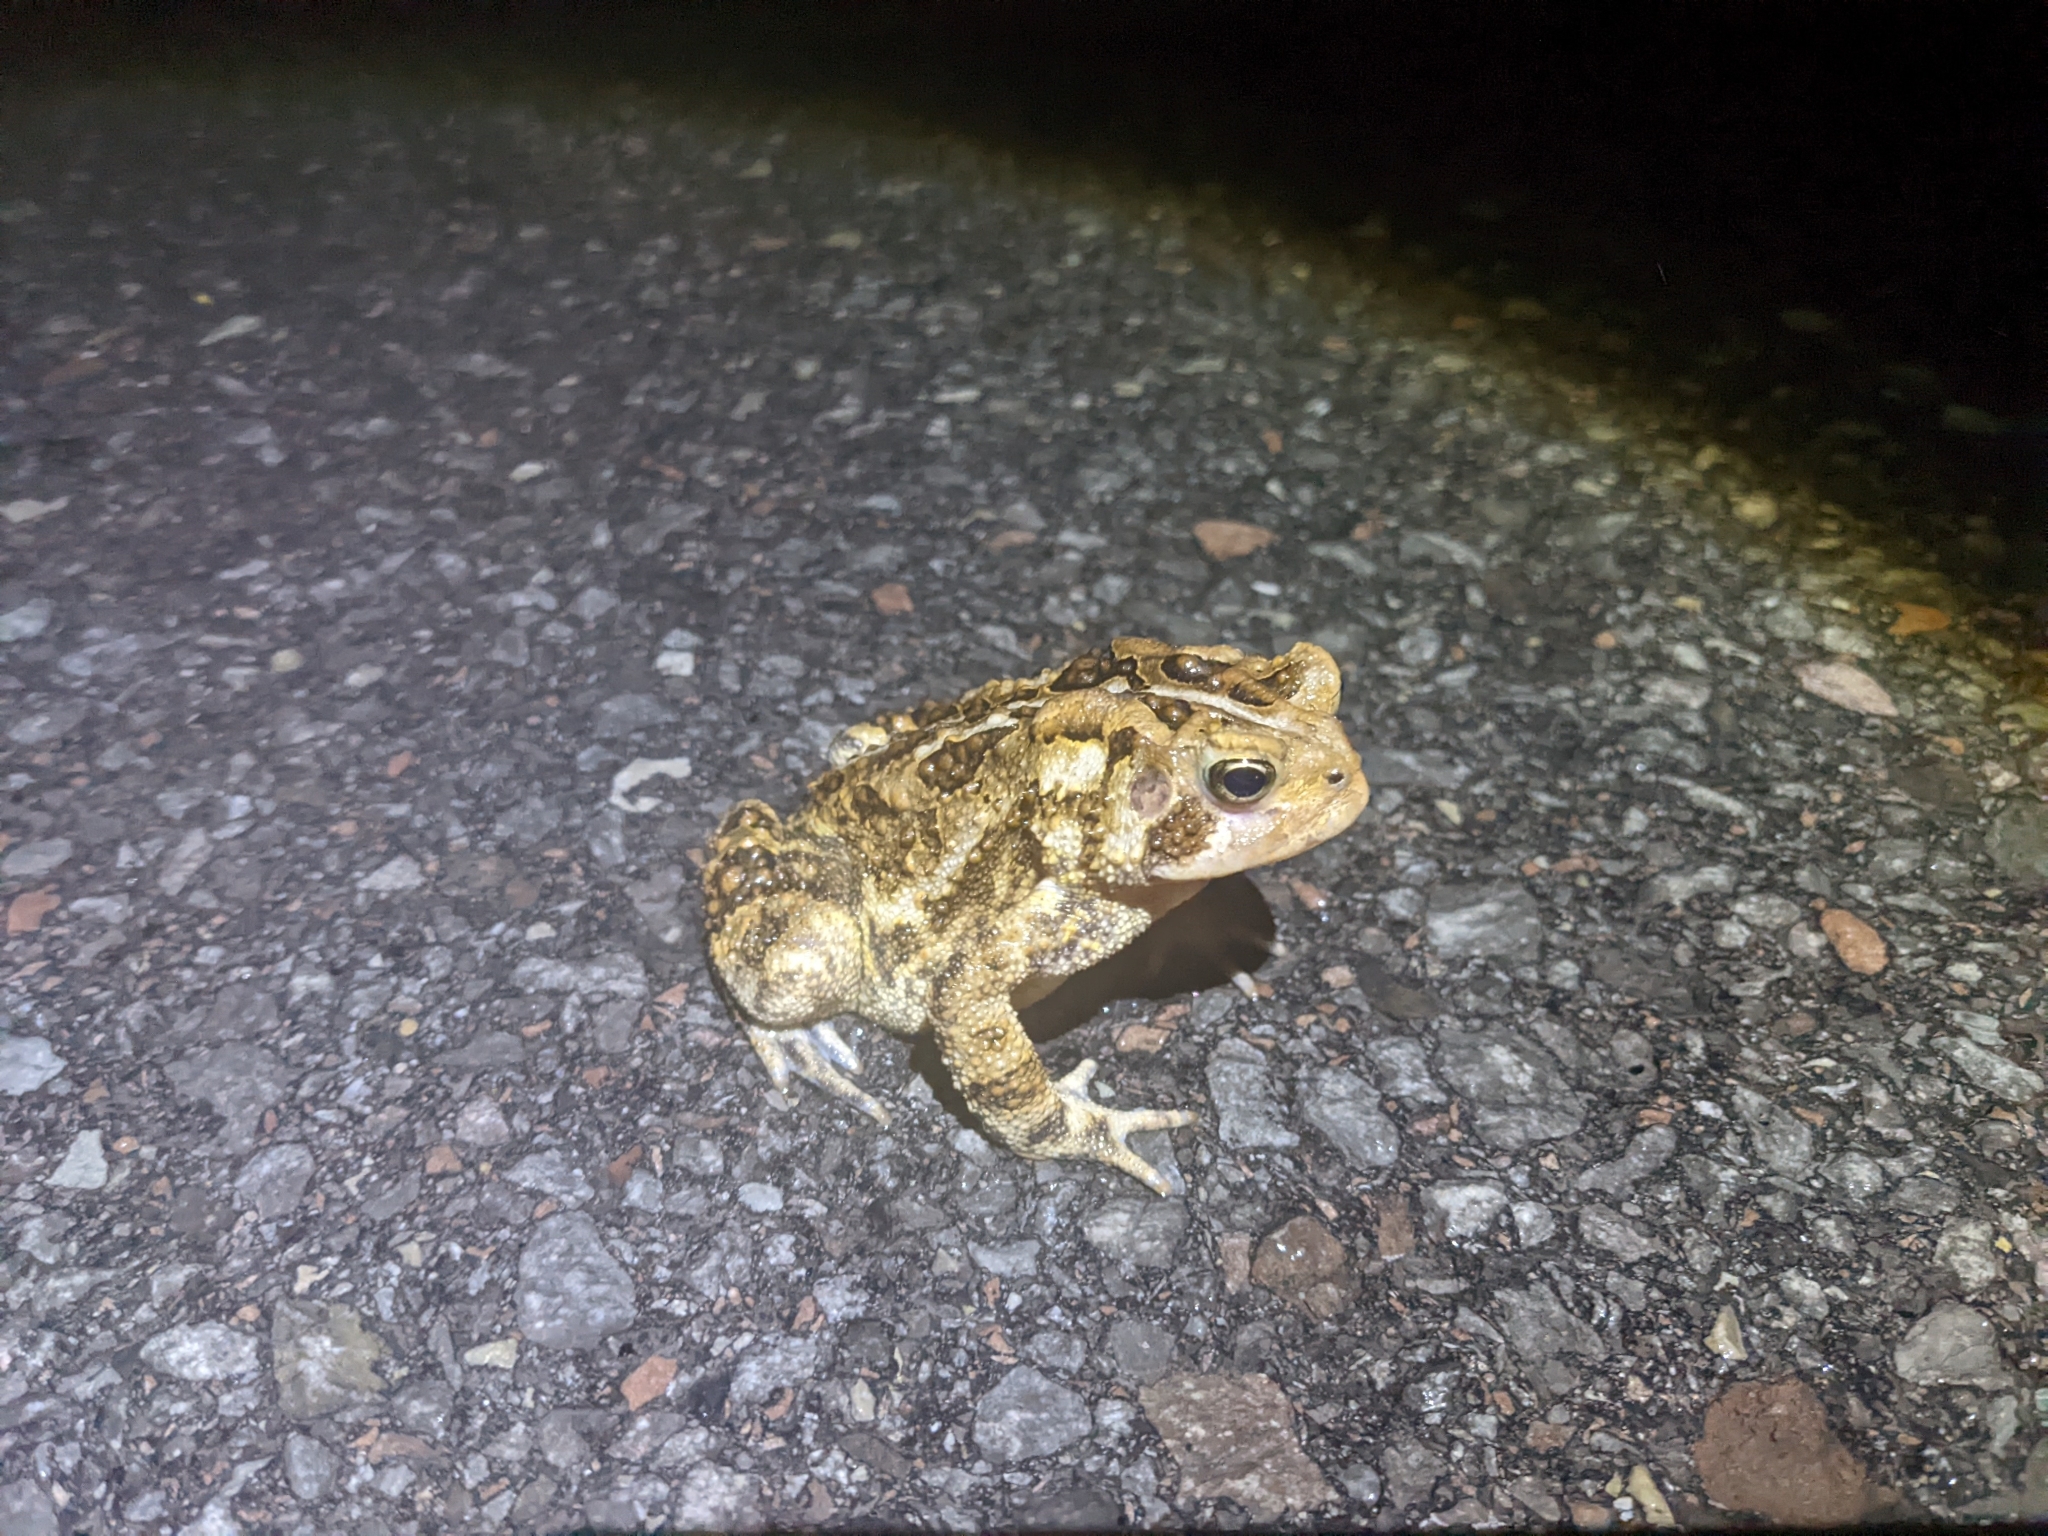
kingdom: Animalia
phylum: Chordata
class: Amphibia
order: Anura
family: Bufonidae
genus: Anaxyrus
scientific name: Anaxyrus americanus
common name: American toad
